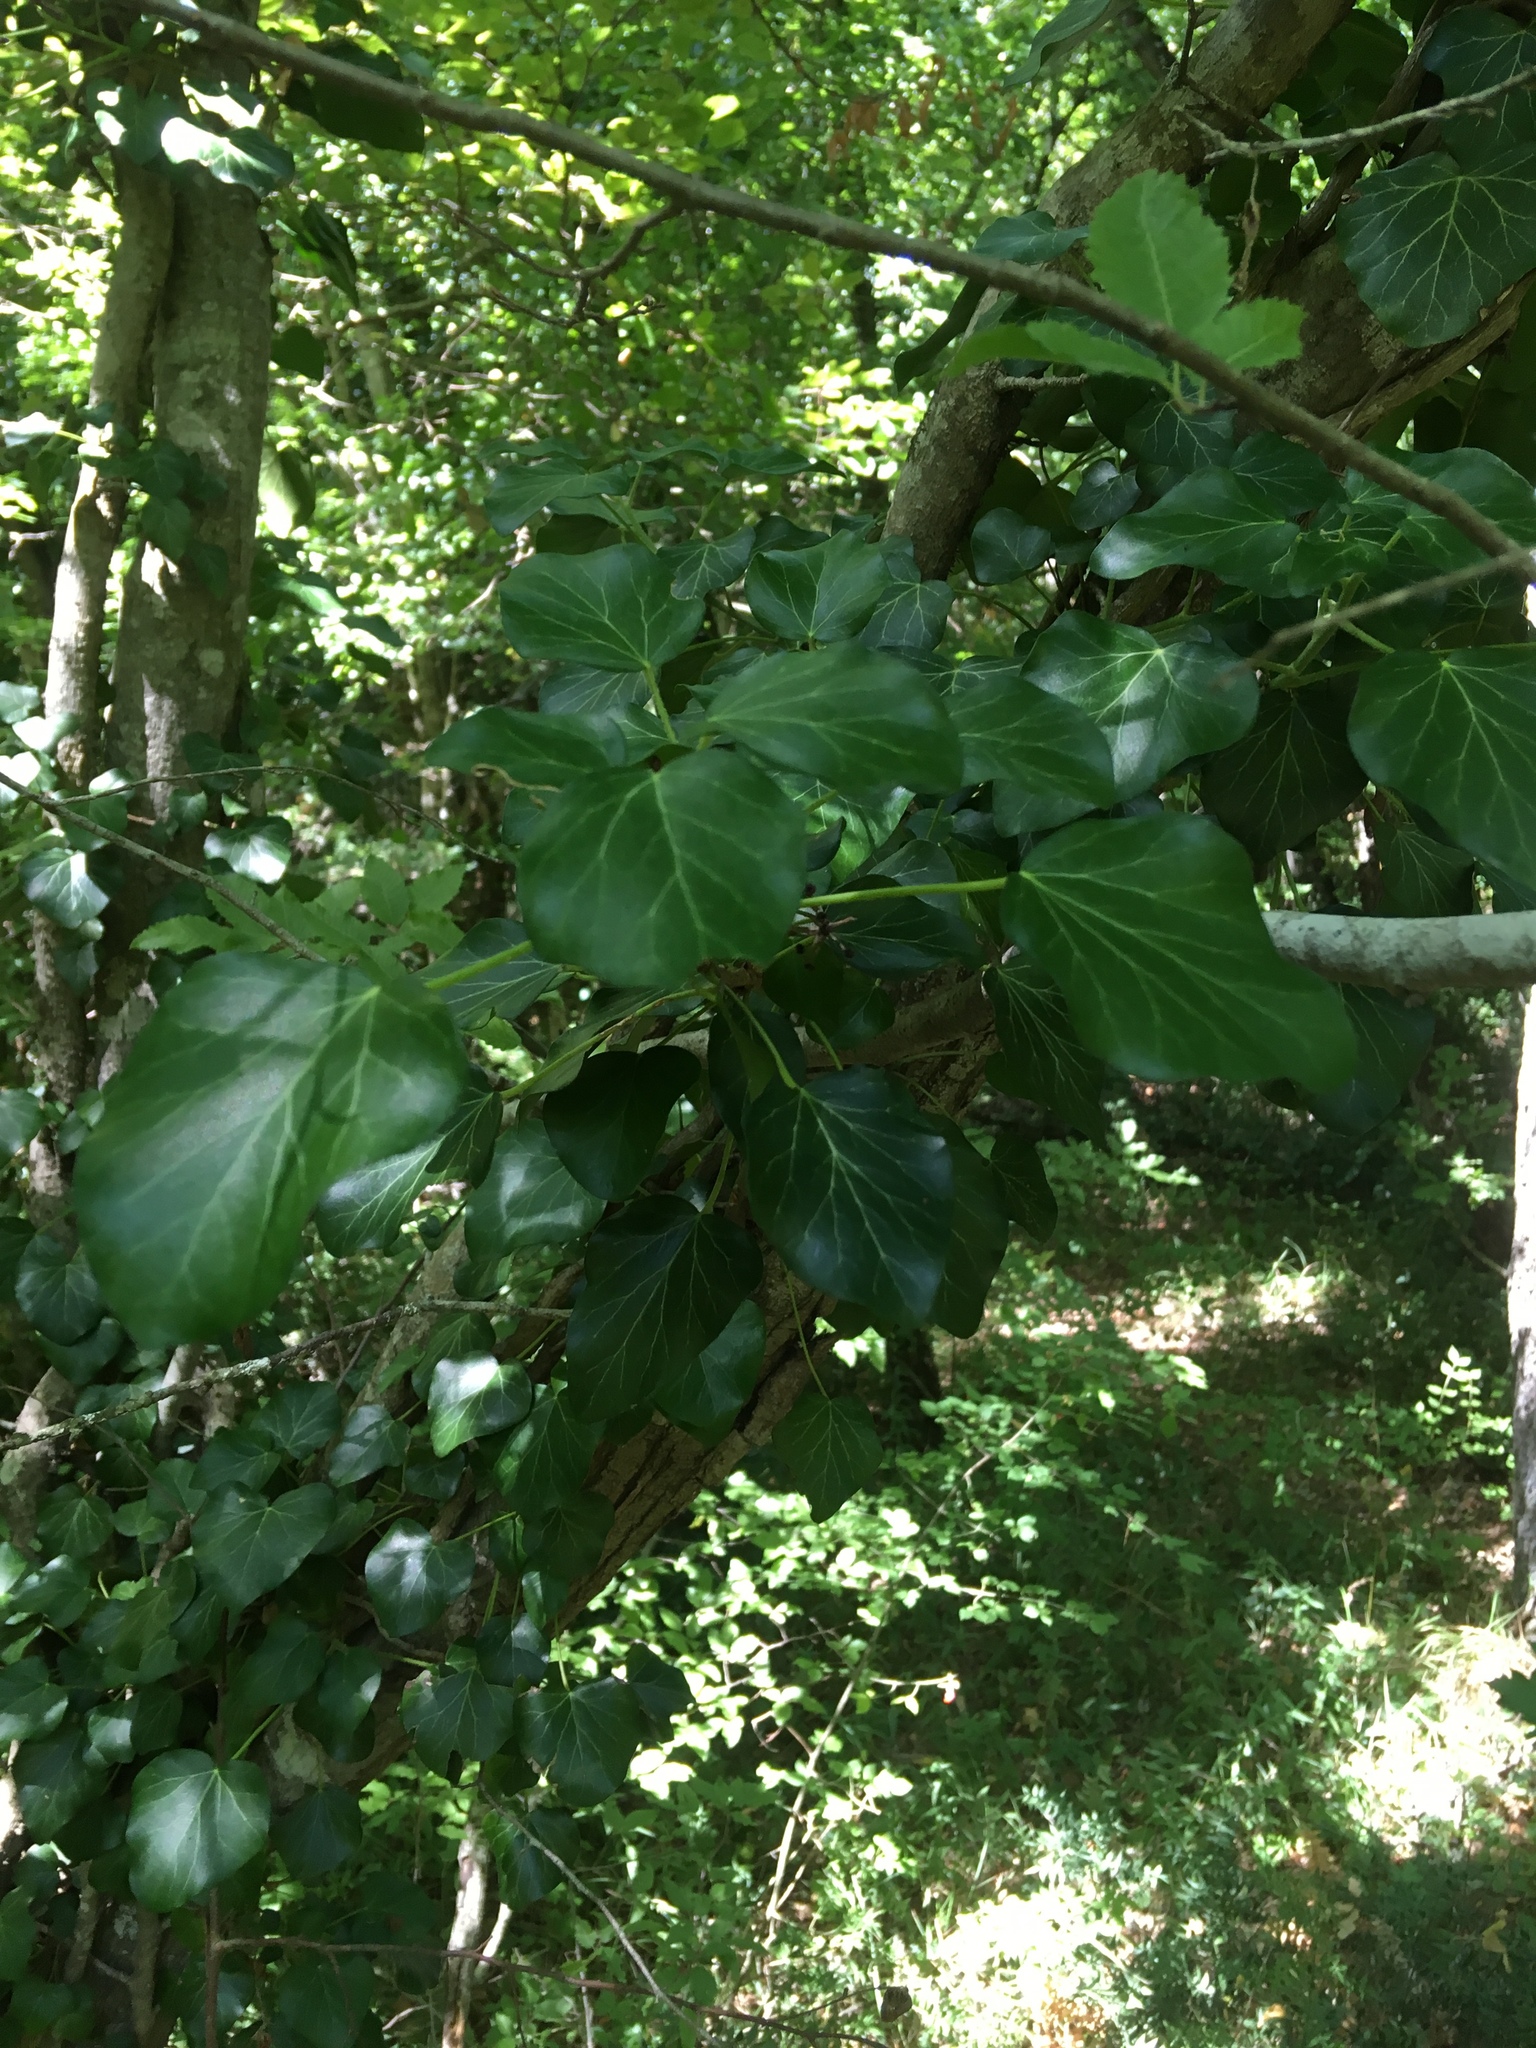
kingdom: Plantae
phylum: Tracheophyta
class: Magnoliopsida
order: Apiales
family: Araliaceae
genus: Hedera
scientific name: Hedera helix
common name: Ivy
